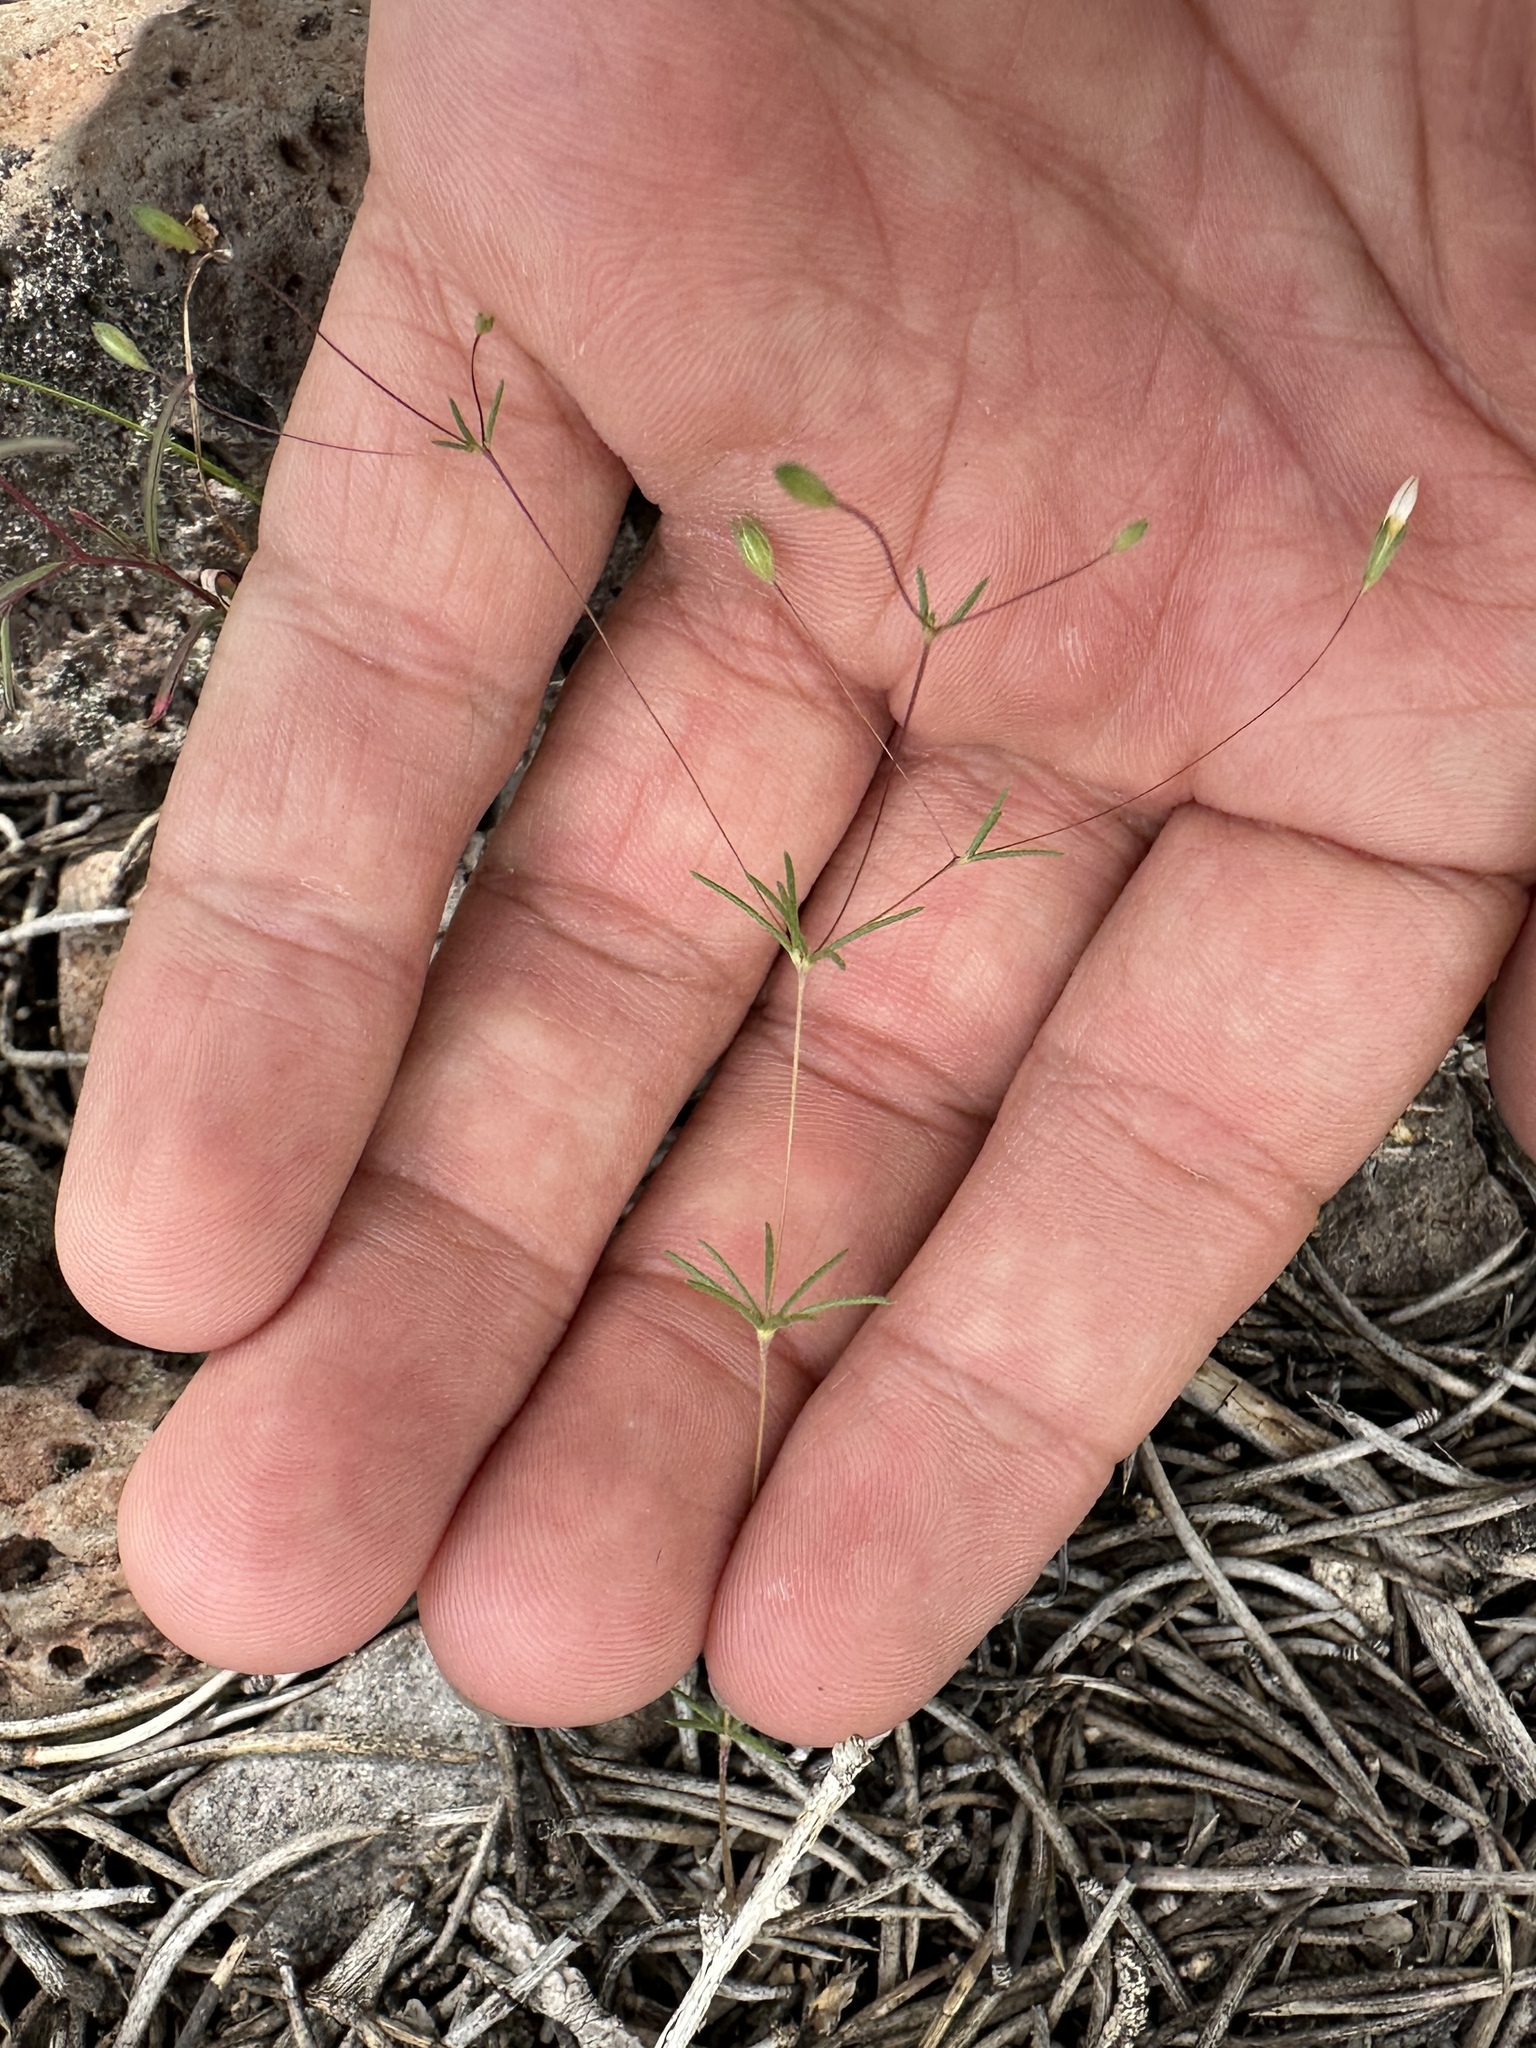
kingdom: Plantae
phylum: Tracheophyta
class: Magnoliopsida
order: Ericales
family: Polemoniaceae
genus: Leptosiphon
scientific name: Leptosiphon septentrionalis
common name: Northern linanthus
